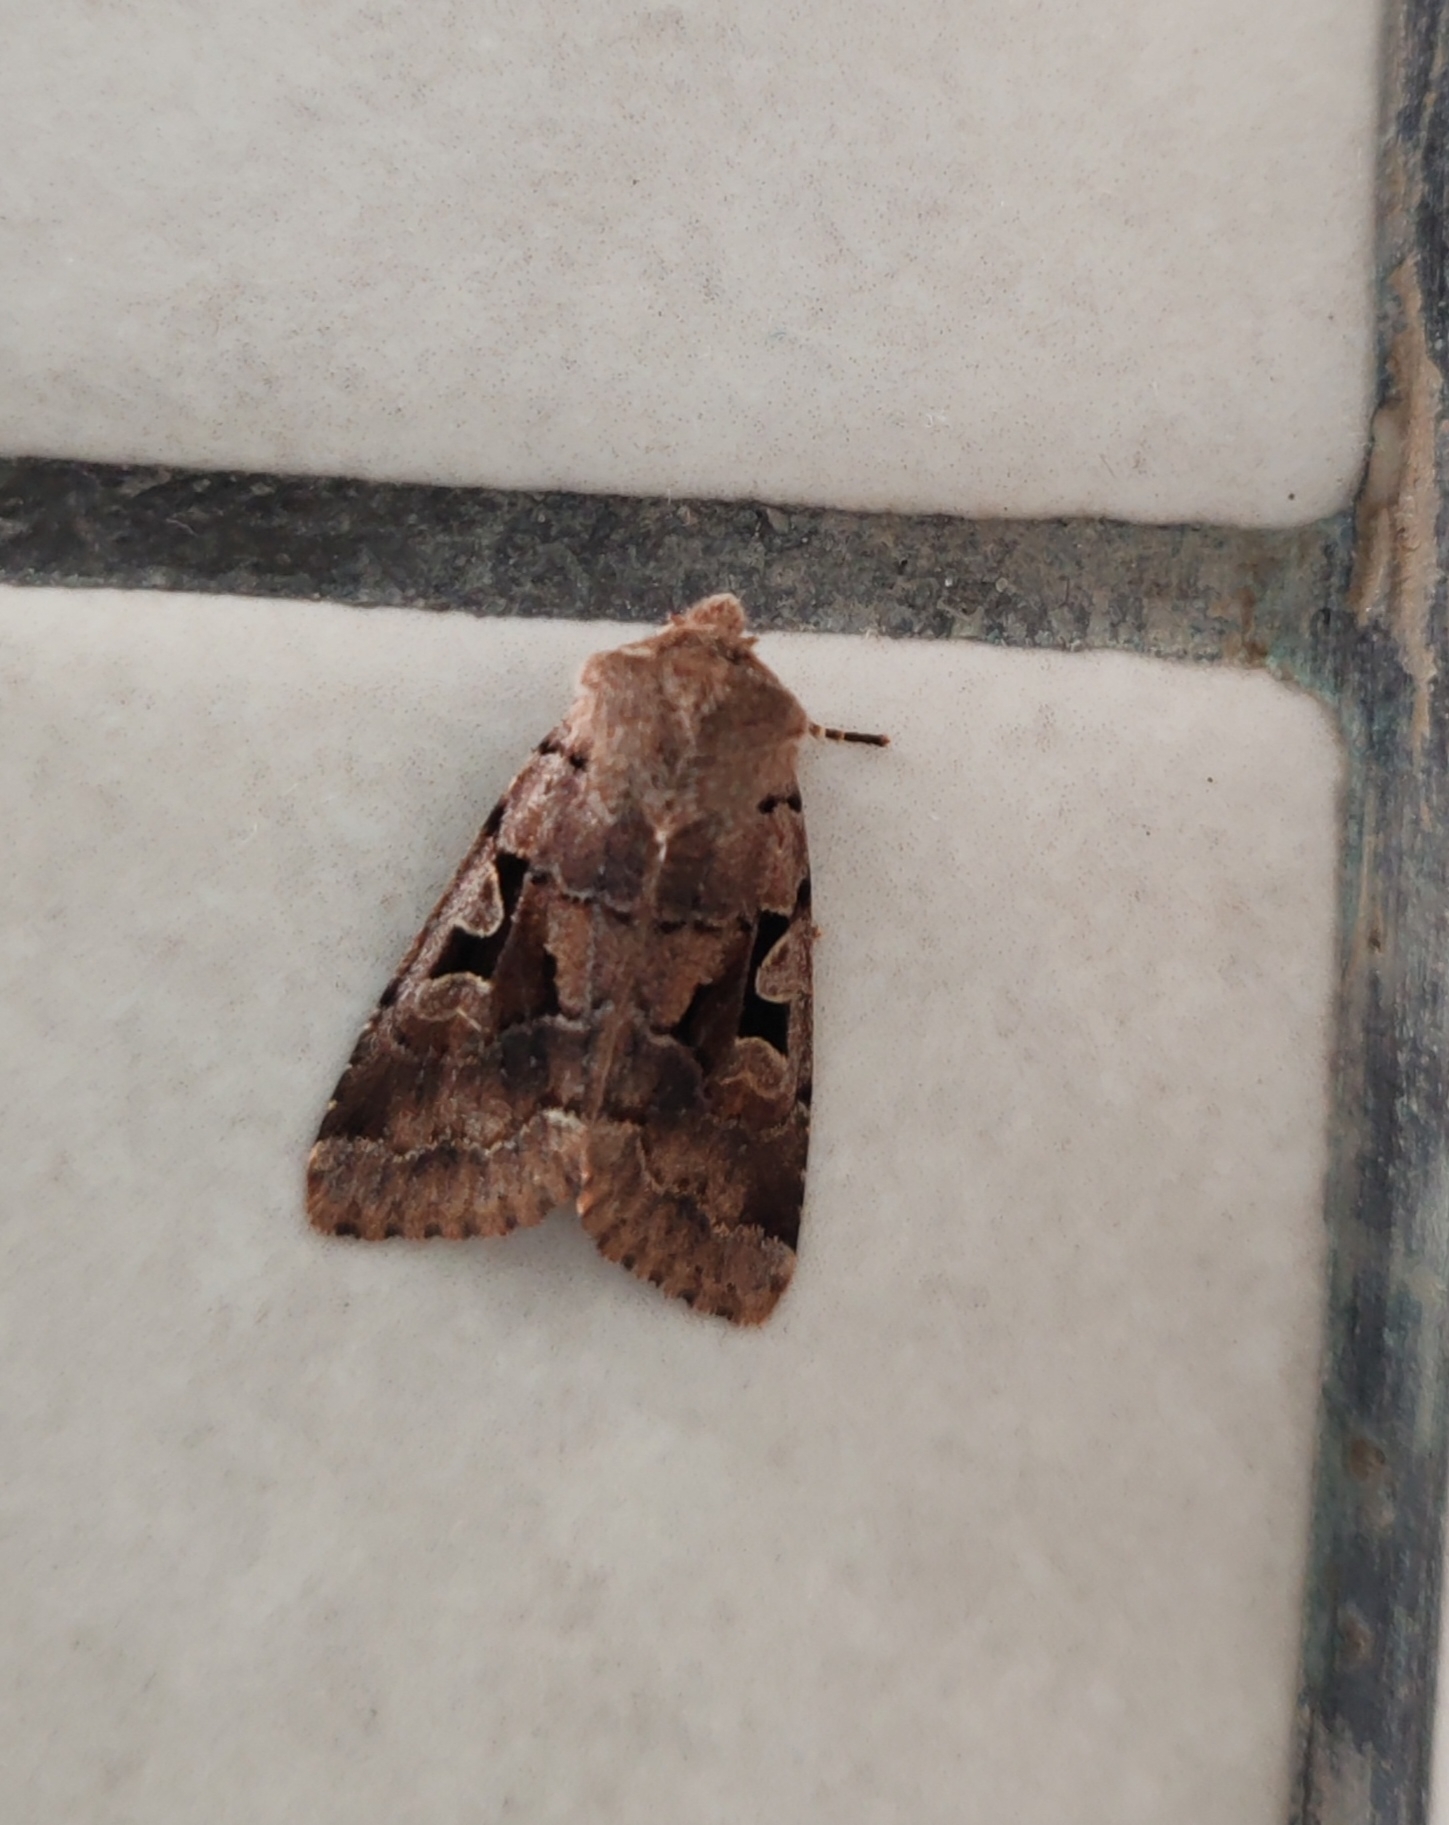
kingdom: Animalia
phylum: Arthropoda
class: Insecta
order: Lepidoptera
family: Noctuidae
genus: Orthosia
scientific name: Orthosia gothica
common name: Hebrew character
